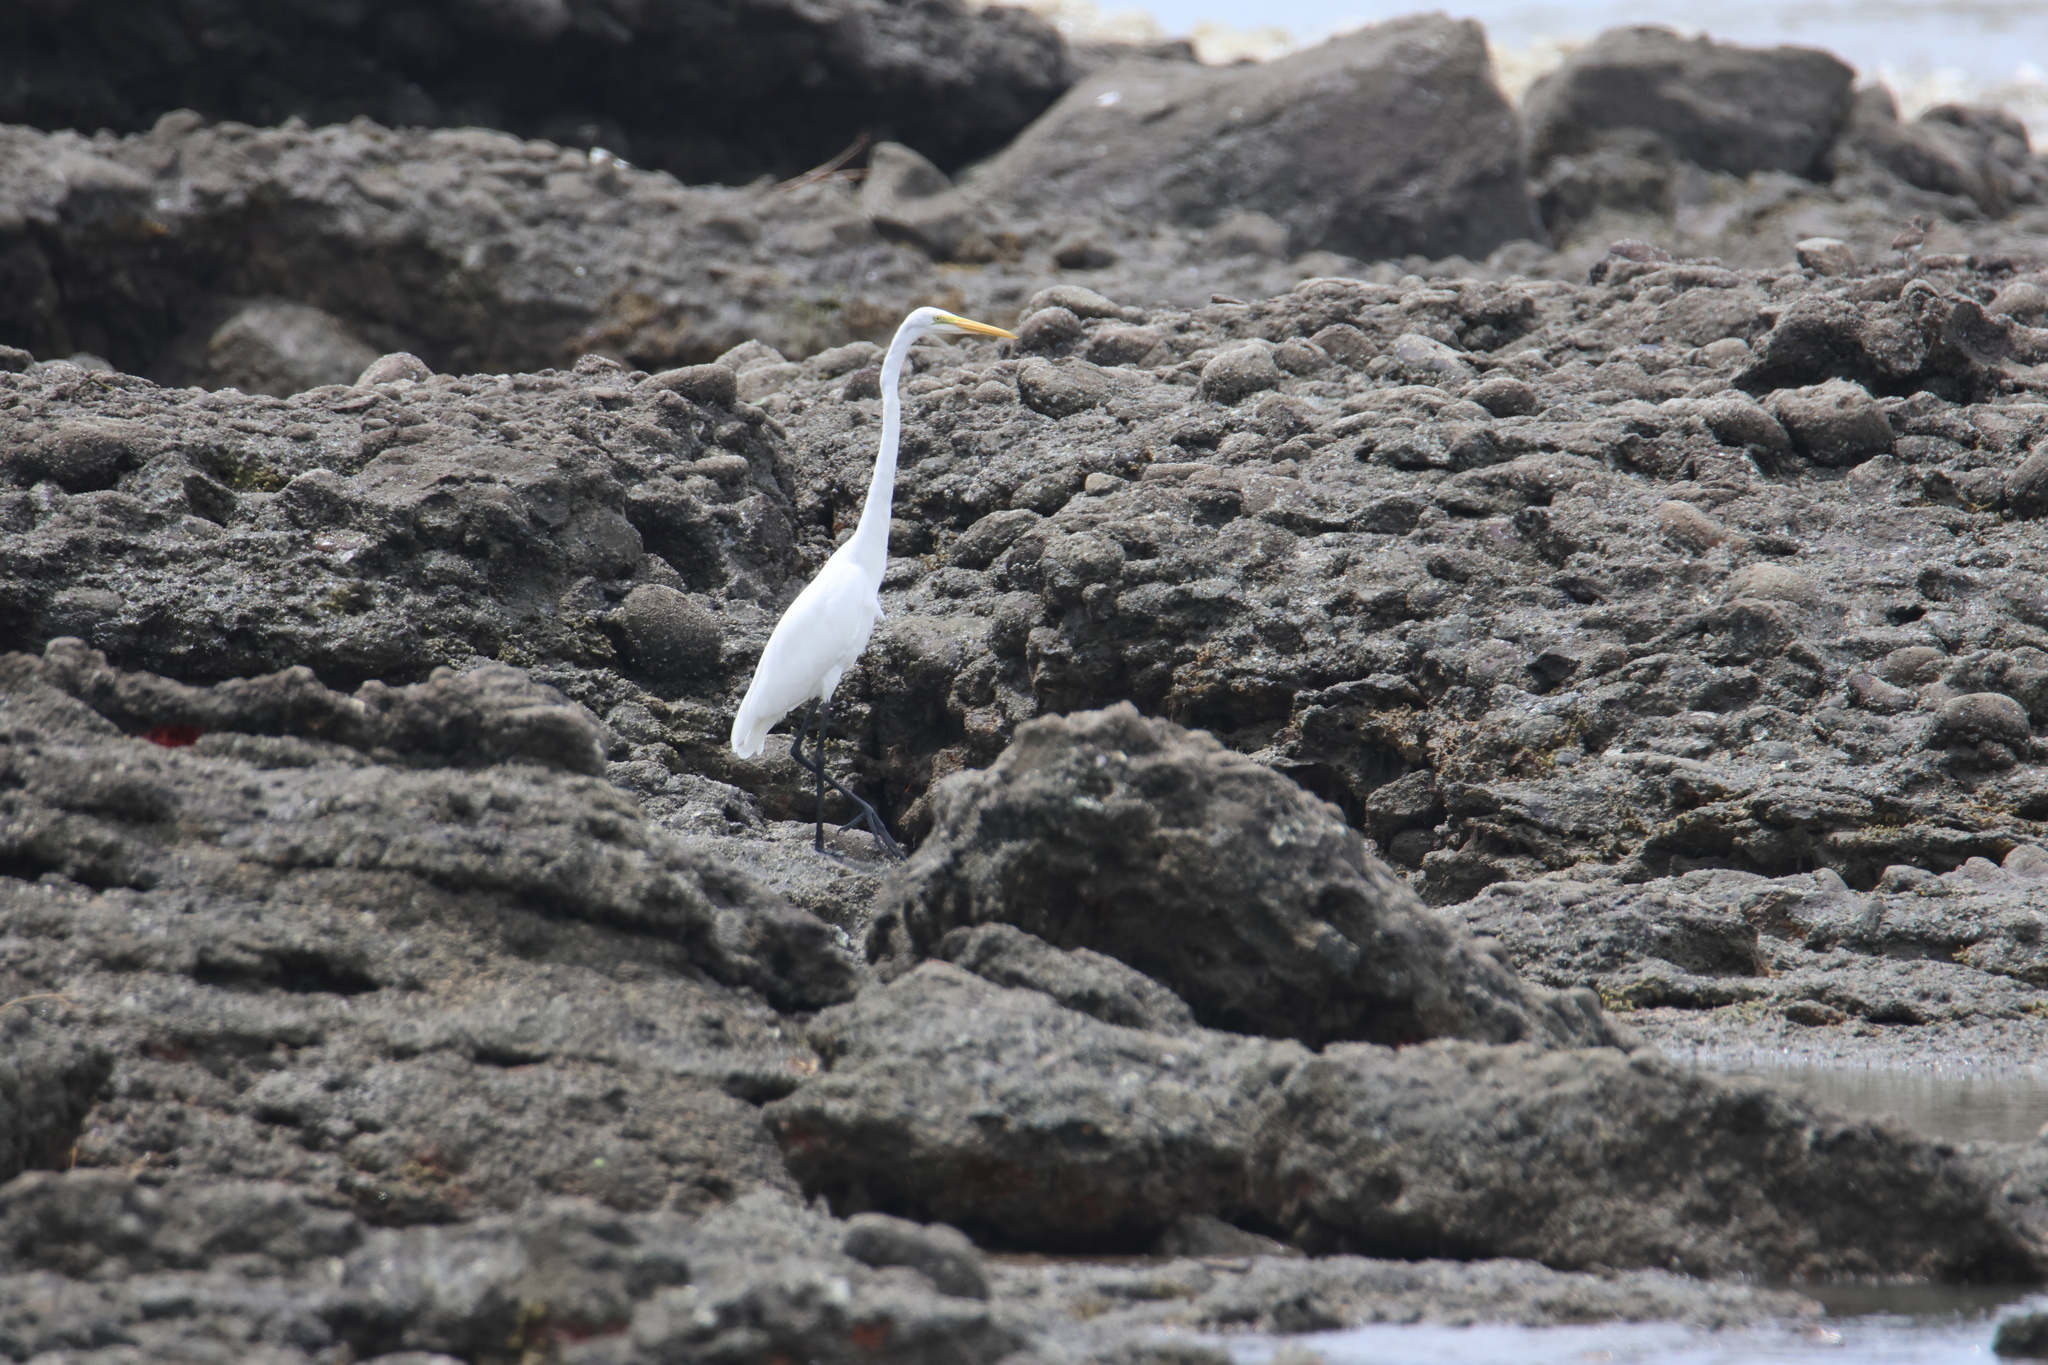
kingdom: Animalia
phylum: Chordata
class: Aves
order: Pelecaniformes
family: Ardeidae
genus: Ardea
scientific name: Ardea alba
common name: Great egret
